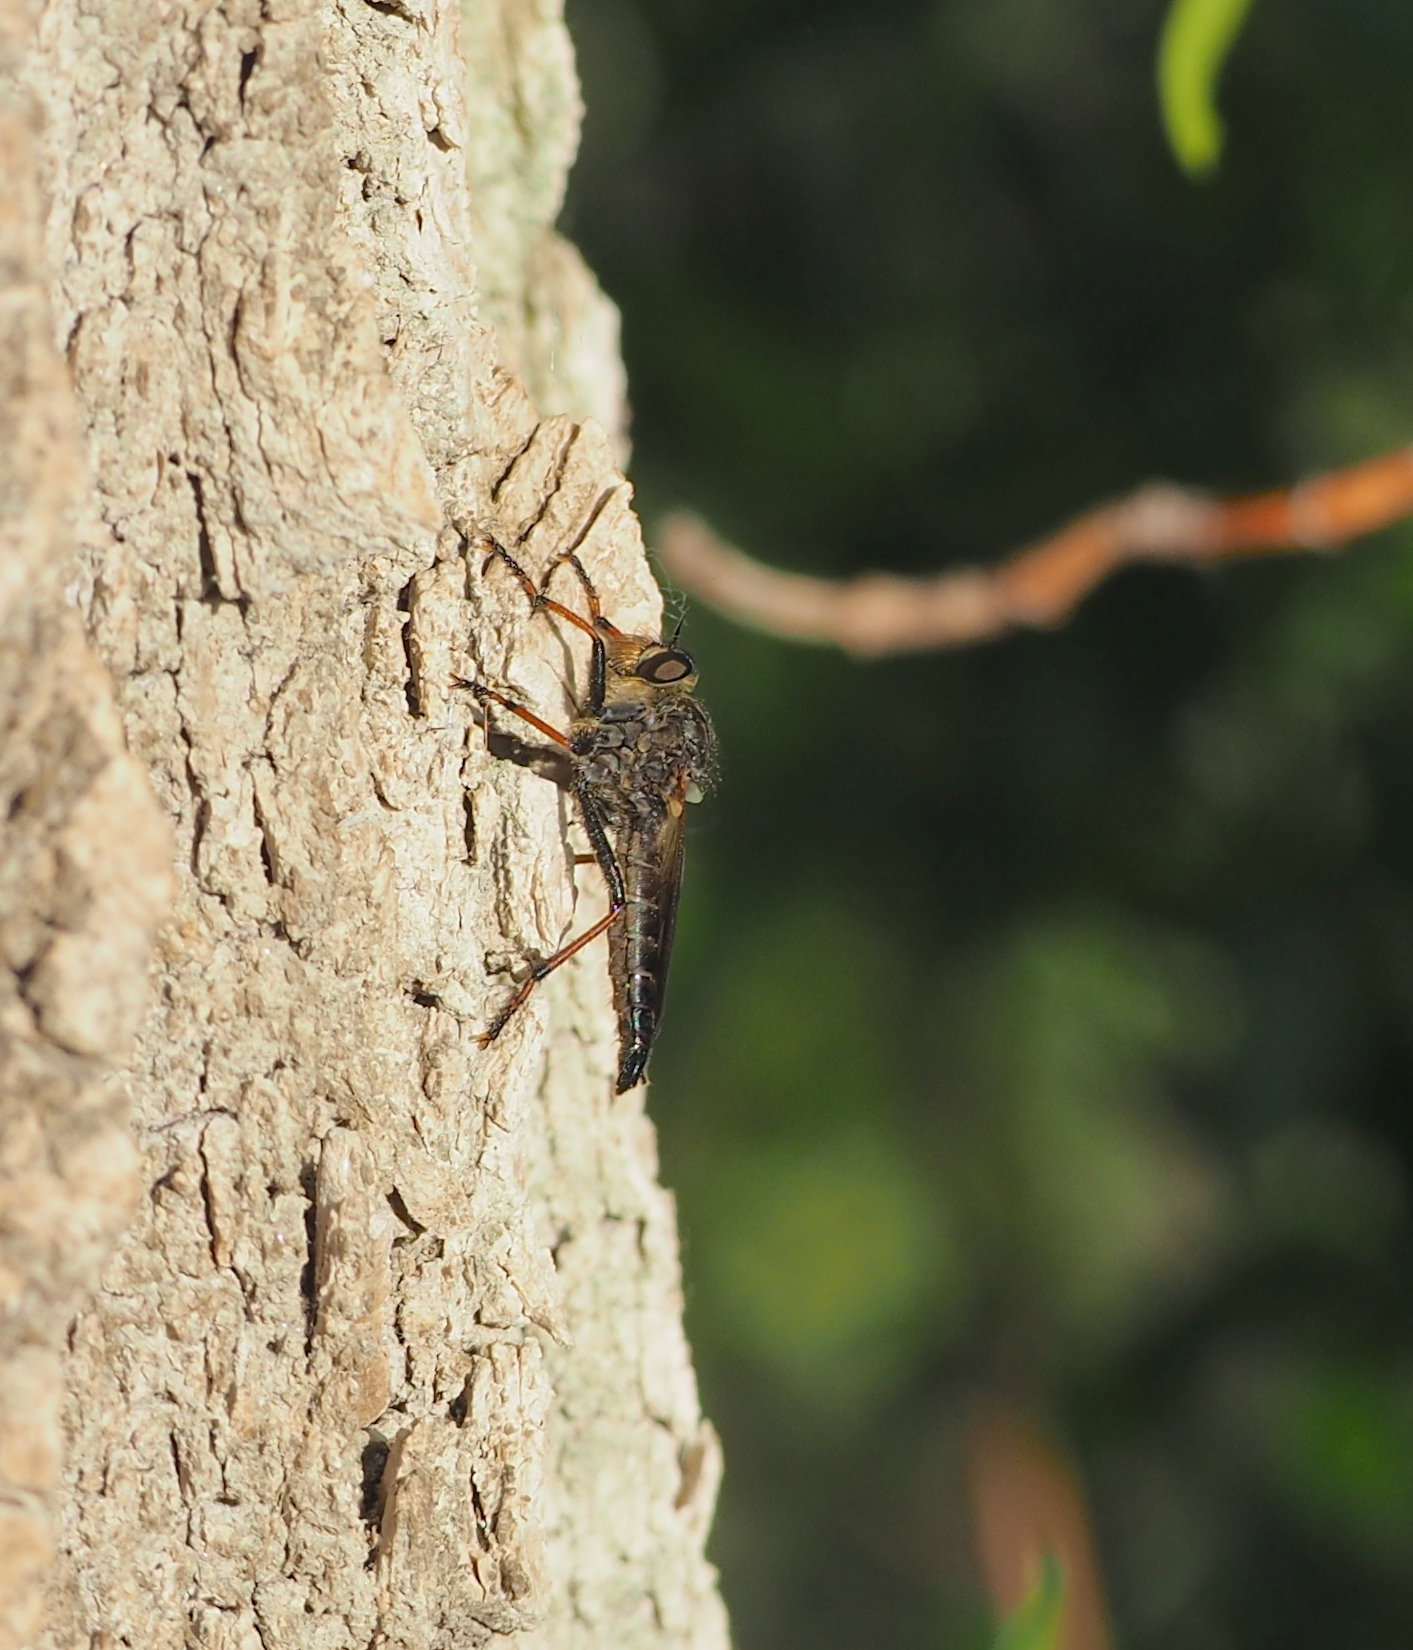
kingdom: Animalia
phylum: Arthropoda
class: Insecta
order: Diptera
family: Asilidae
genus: Pamponerus
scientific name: Pamponerus germanicus
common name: Pied-winged robberfly
